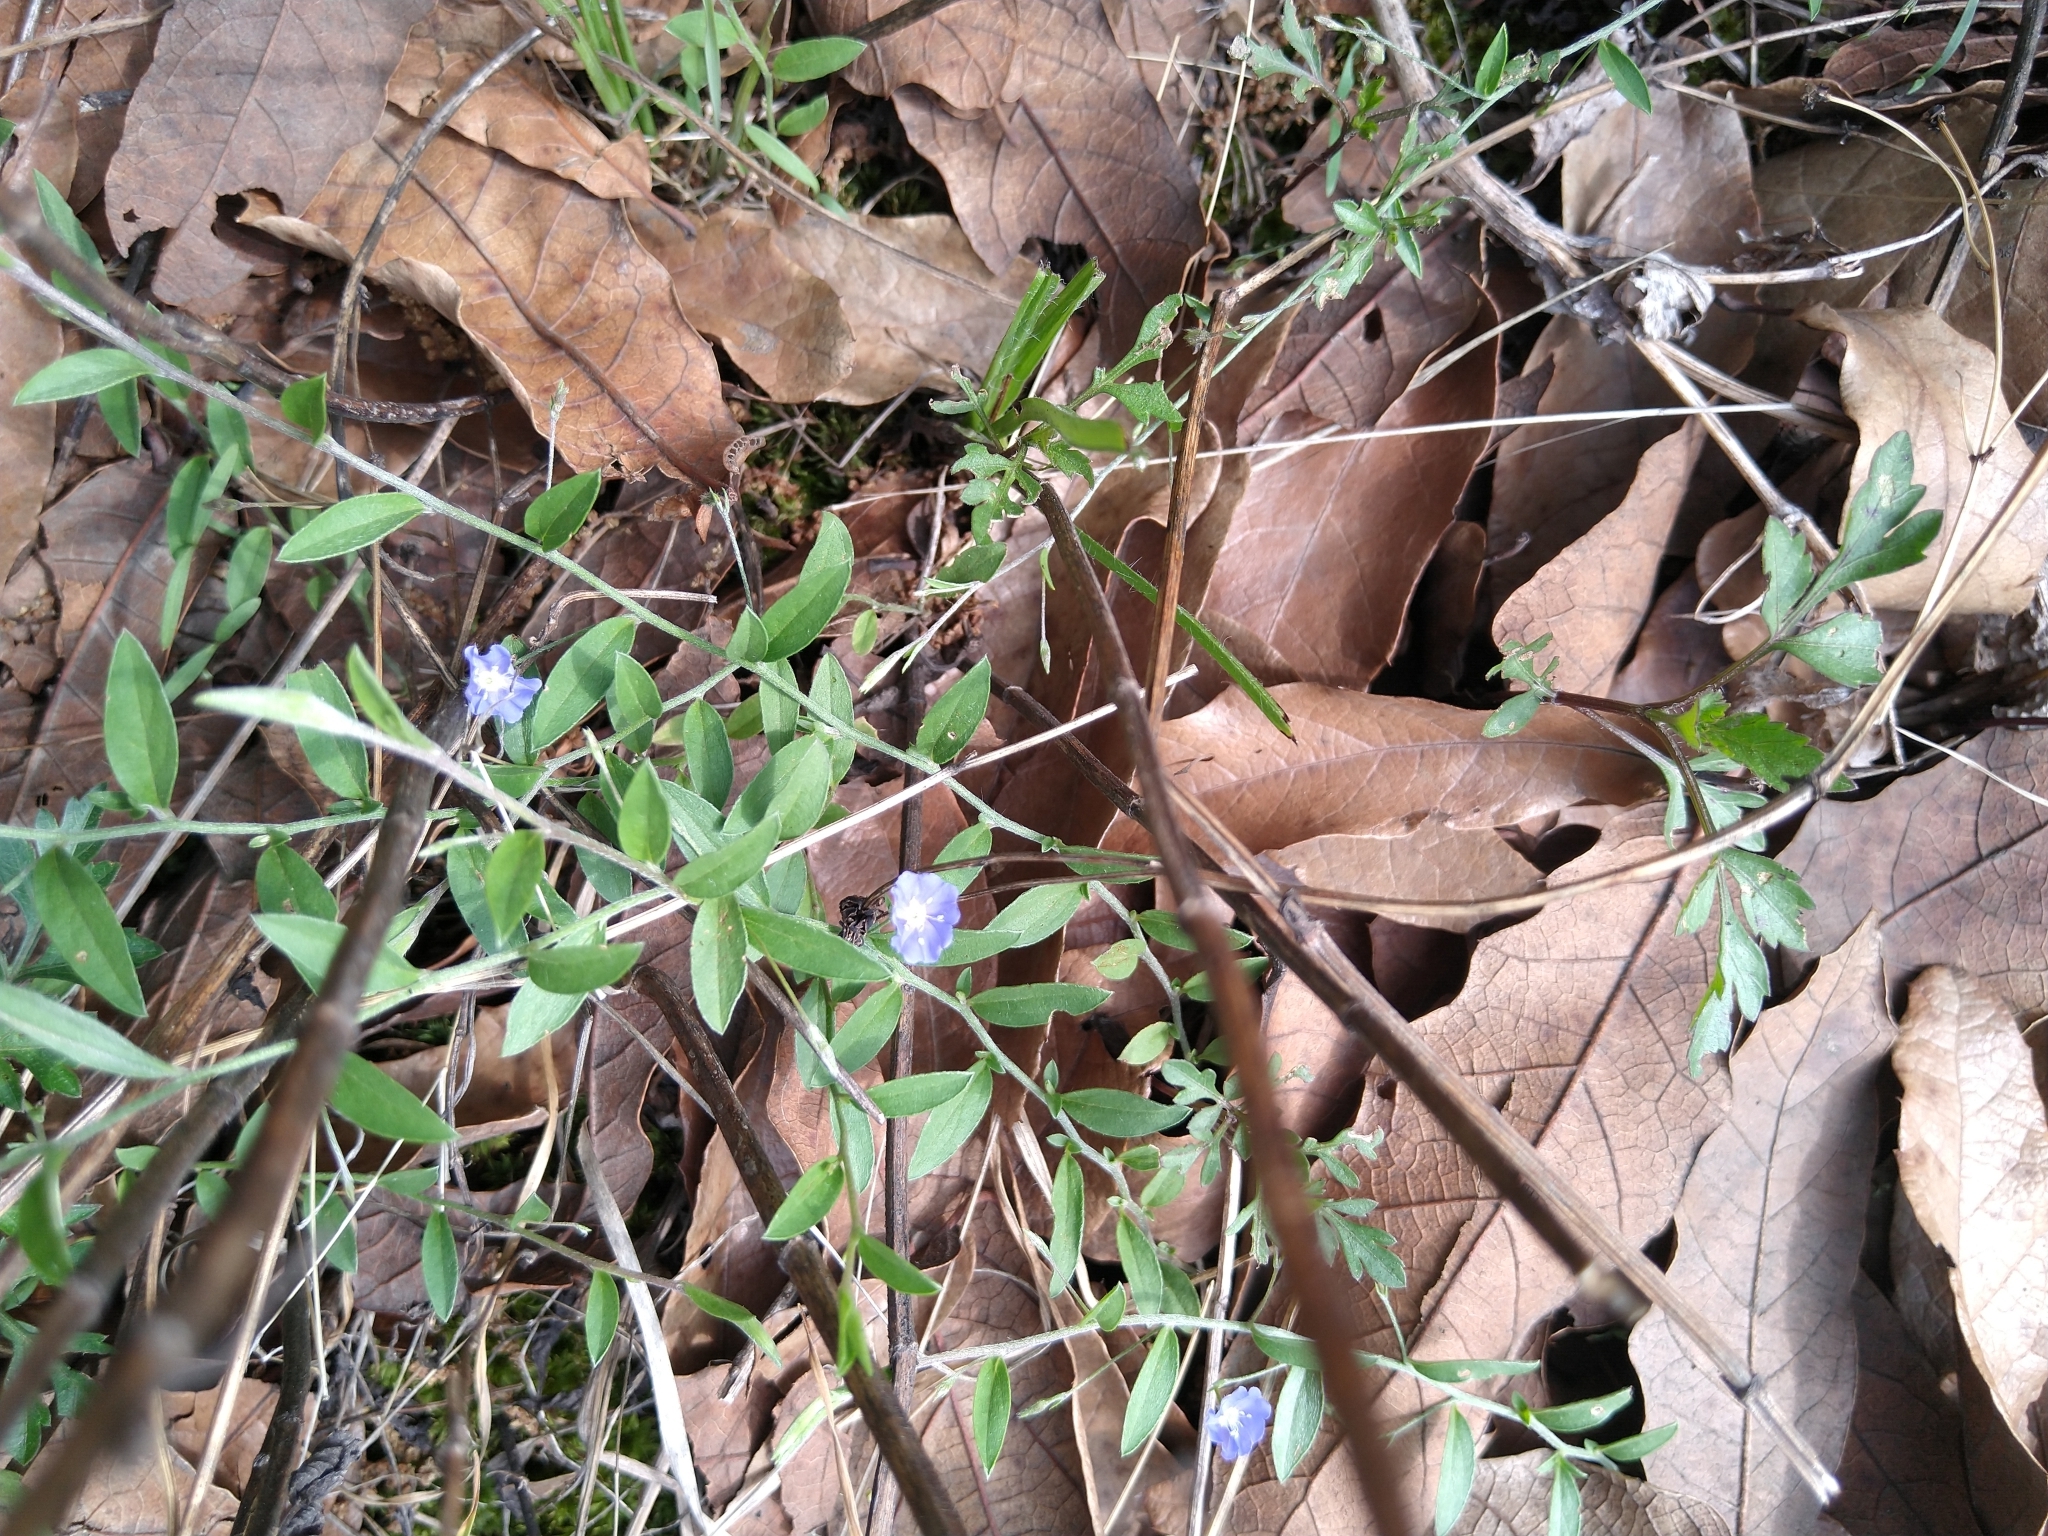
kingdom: Plantae
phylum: Tracheophyta
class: Magnoliopsida
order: Solanales
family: Convolvulaceae
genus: Evolvulus
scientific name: Evolvulus alsinoides
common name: Slender dwarf morning-glory
